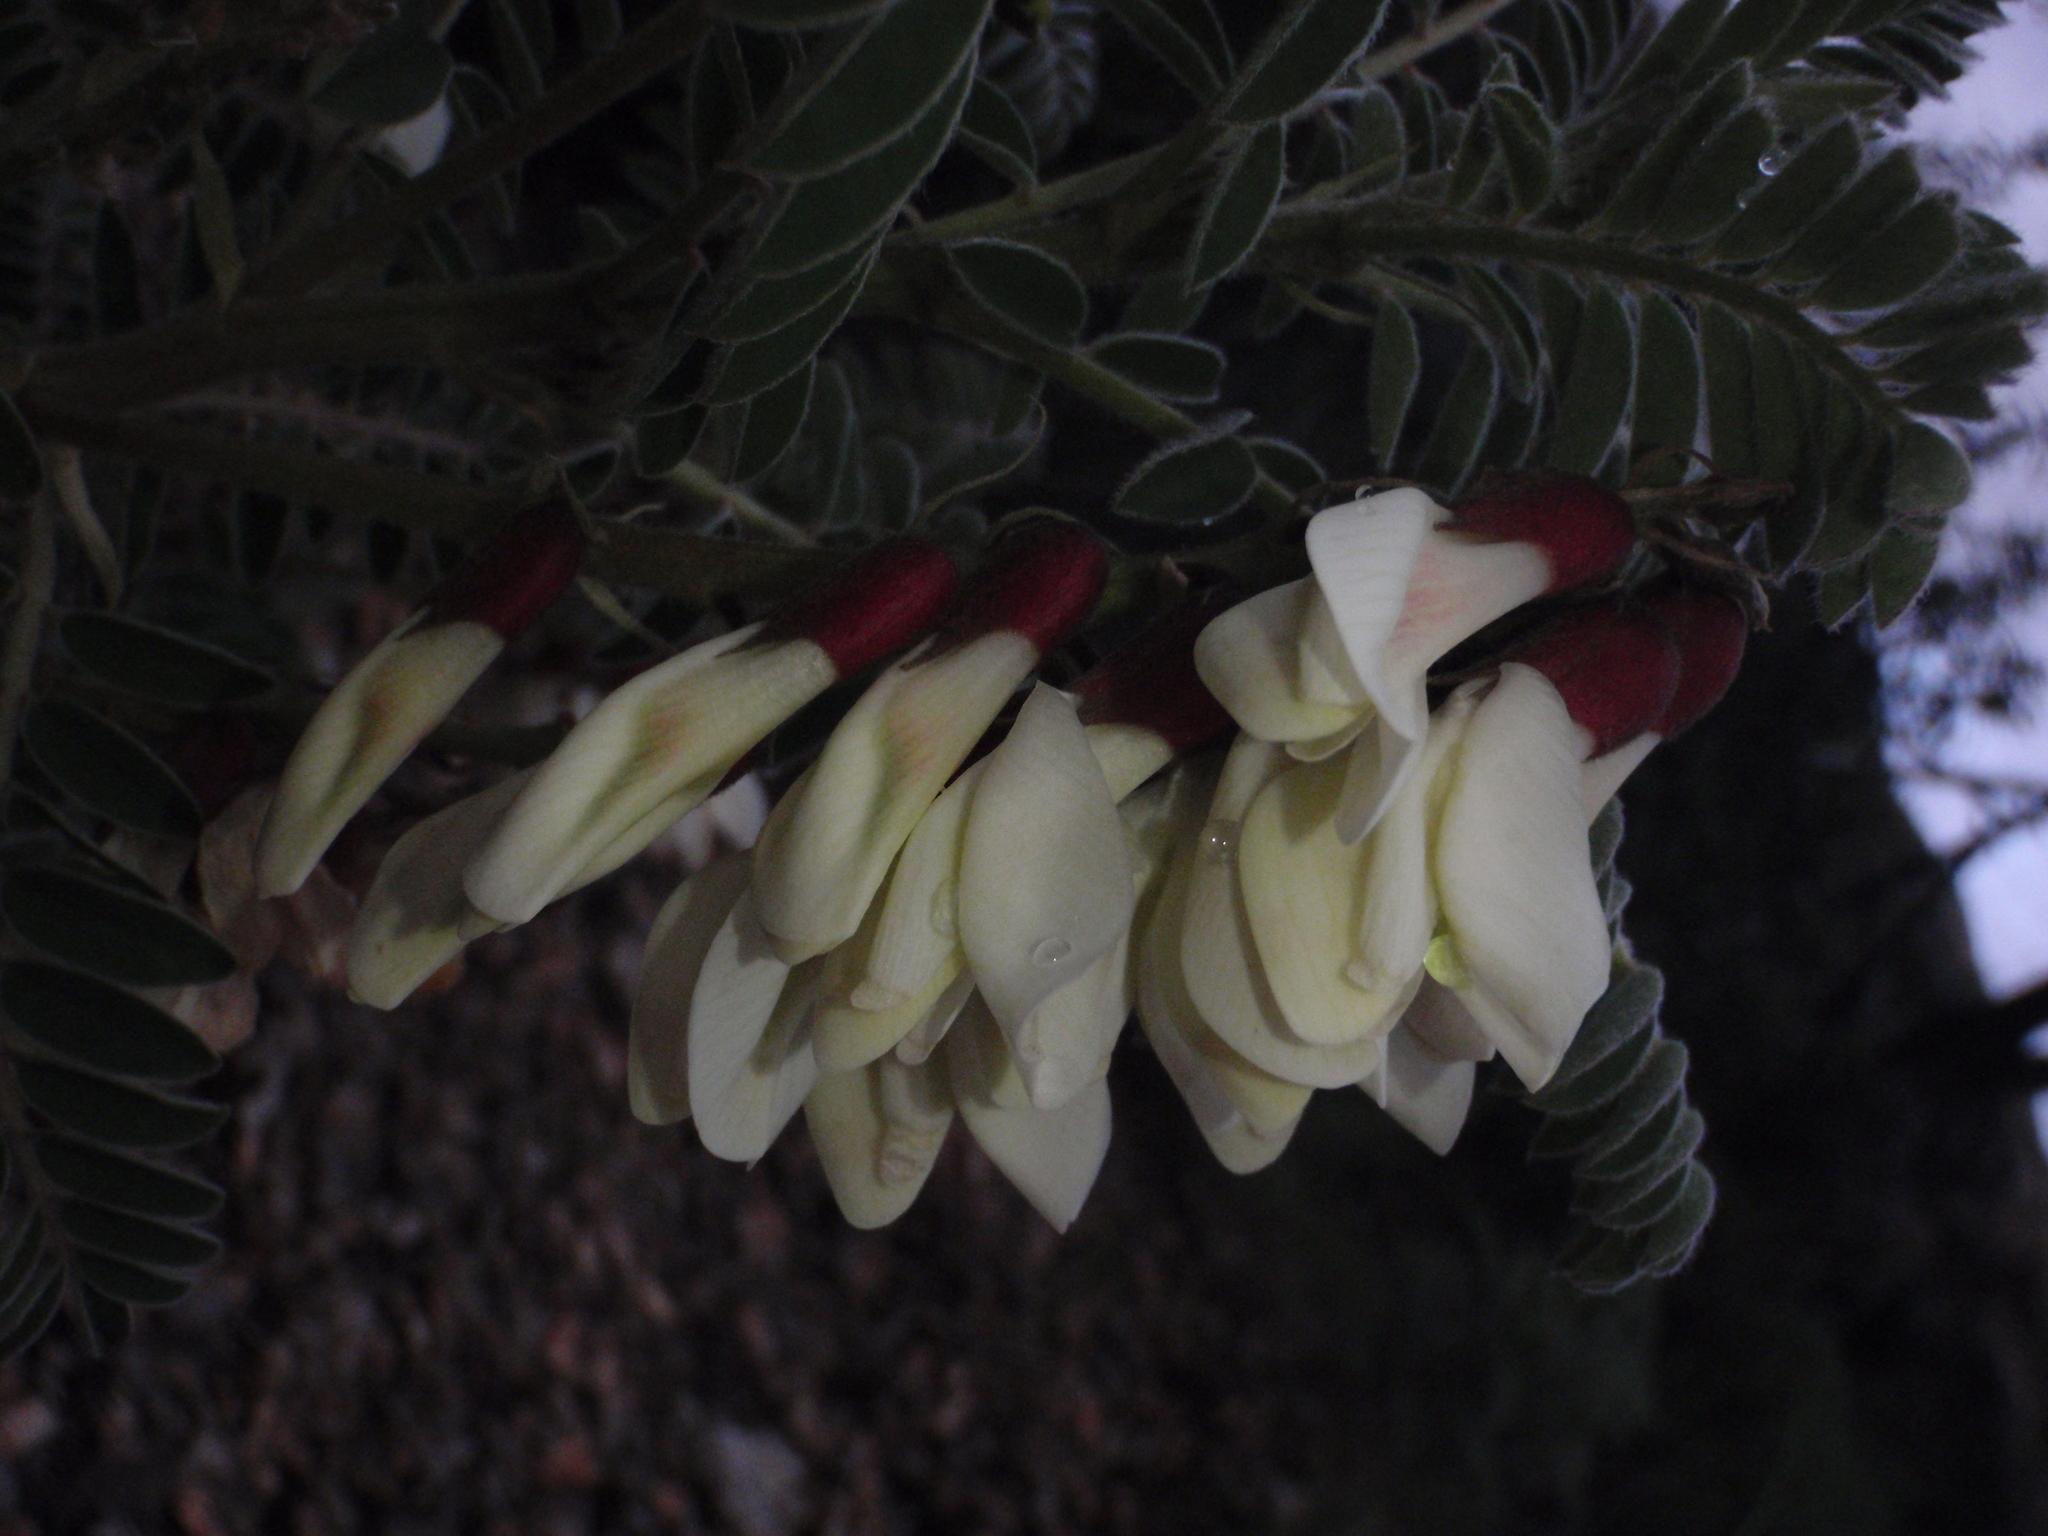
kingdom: Plantae
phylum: Tracheophyta
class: Magnoliopsida
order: Fabales
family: Fabaceae
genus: Erophaca
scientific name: Erophaca baetica
